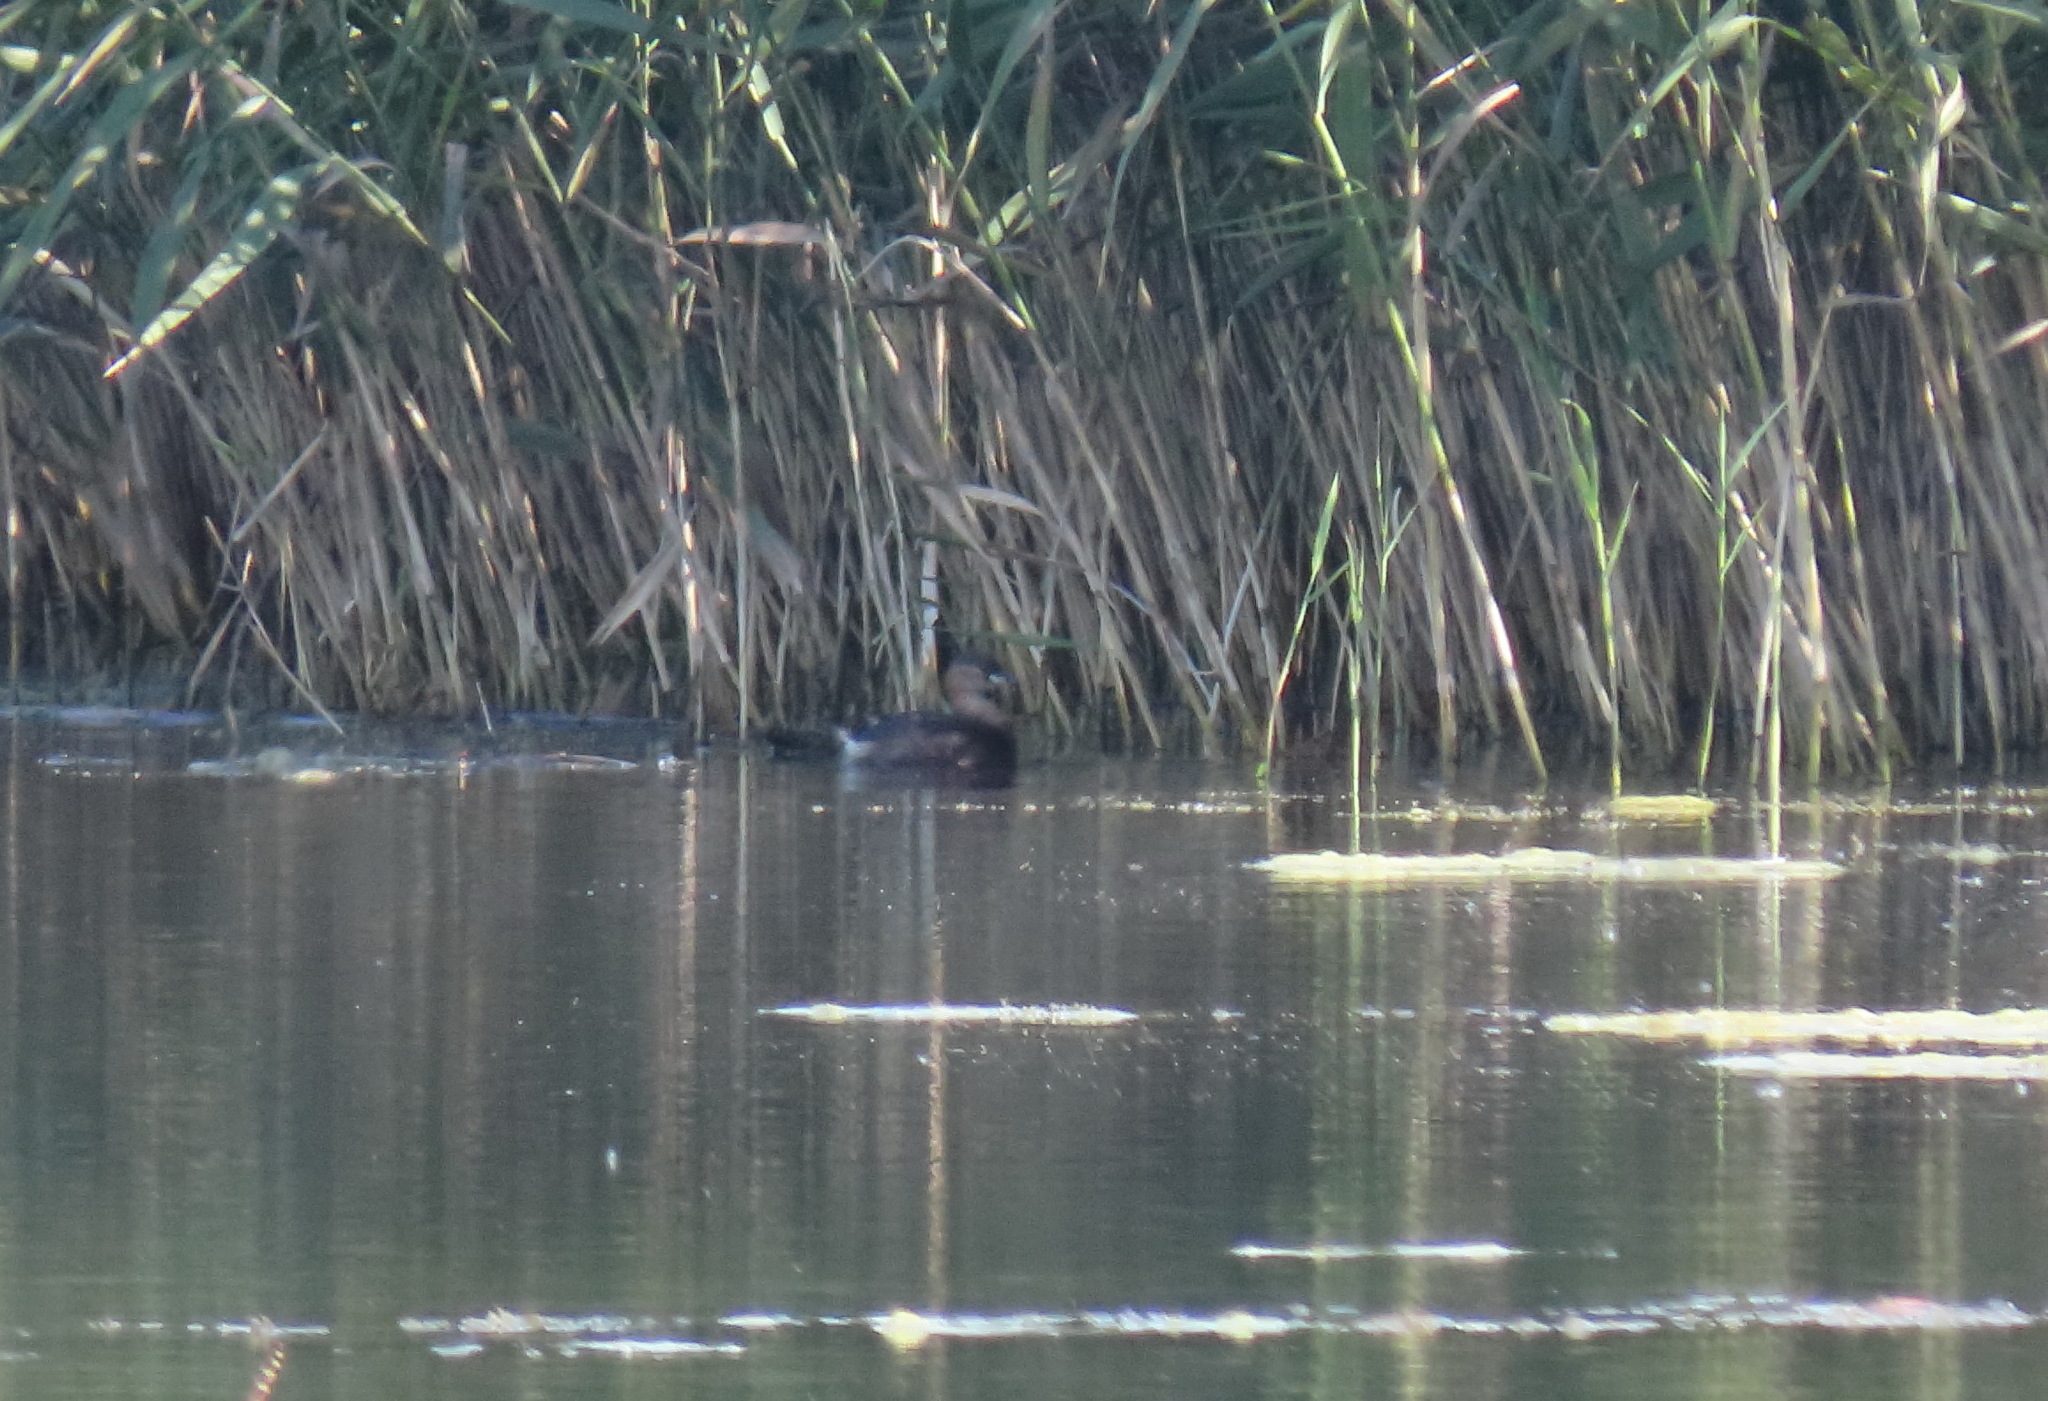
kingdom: Animalia
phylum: Chordata
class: Aves
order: Podicipediformes
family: Podicipedidae
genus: Tachybaptus
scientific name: Tachybaptus ruficollis
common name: Little grebe
